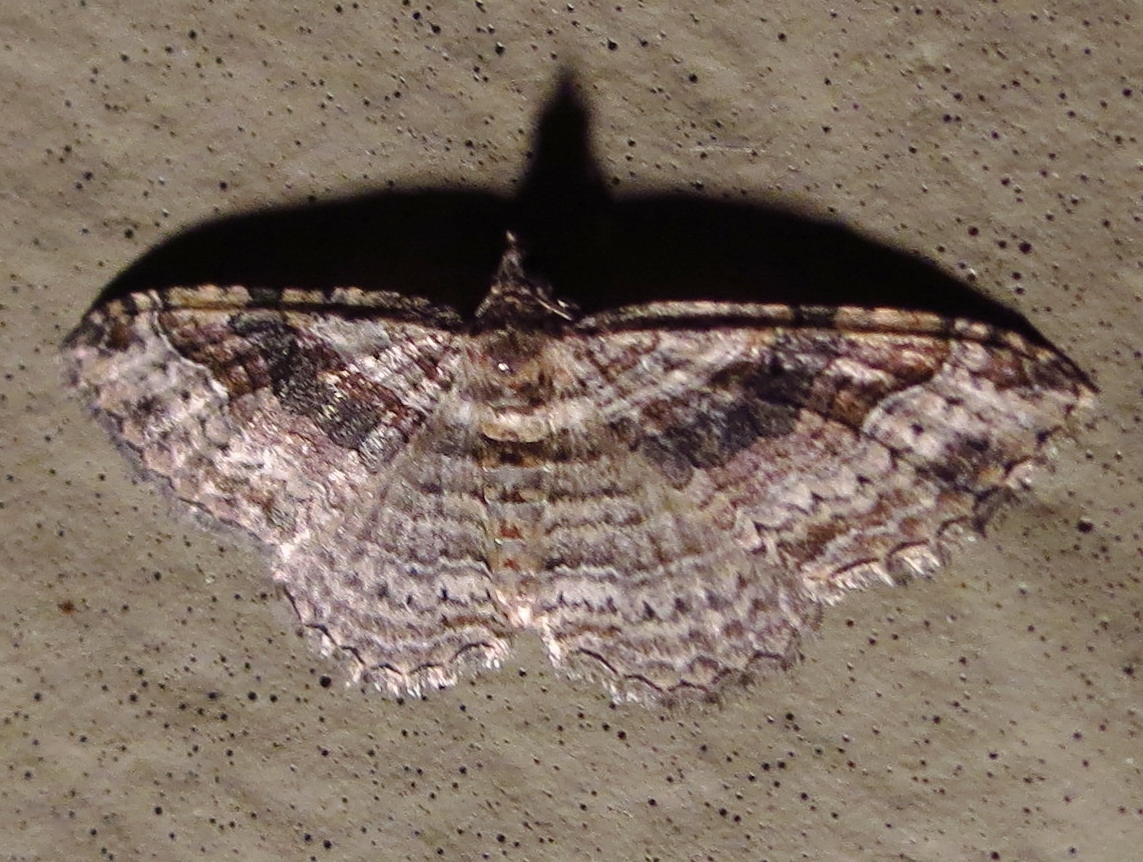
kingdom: Animalia
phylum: Arthropoda
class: Insecta
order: Lepidoptera
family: Geometridae
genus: Costaconvexa
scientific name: Costaconvexa centrostrigaria
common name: Bent-line carpet
